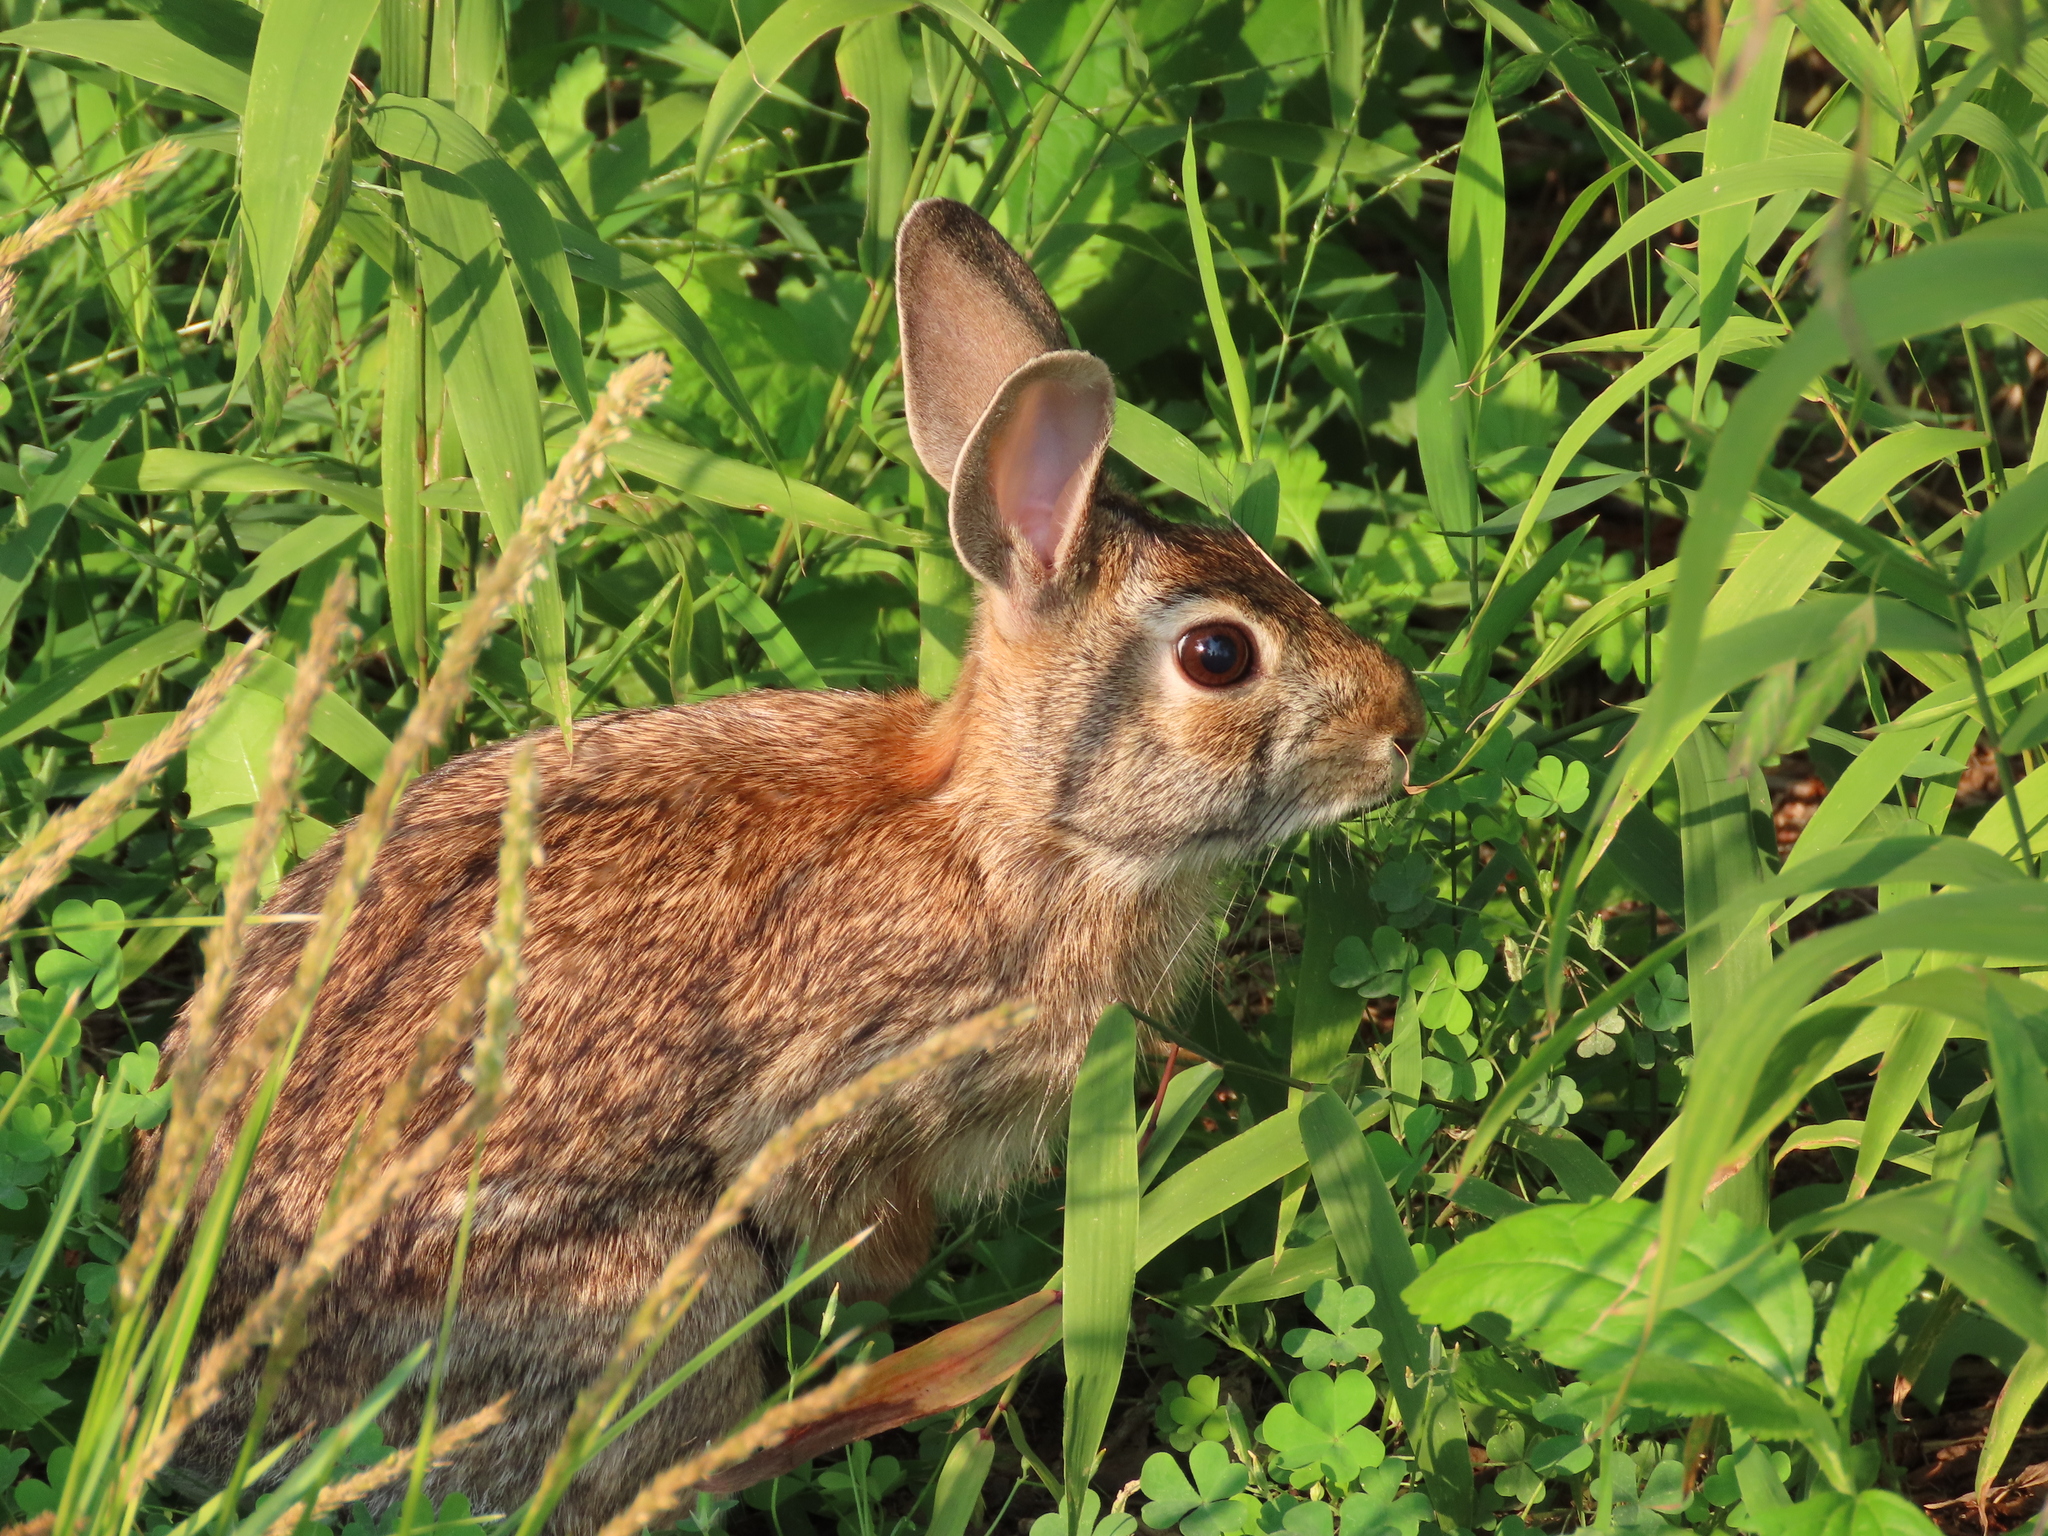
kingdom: Animalia
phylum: Chordata
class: Mammalia
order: Lagomorpha
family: Leporidae
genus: Sylvilagus
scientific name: Sylvilagus floridanus
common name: Eastern cottontail
